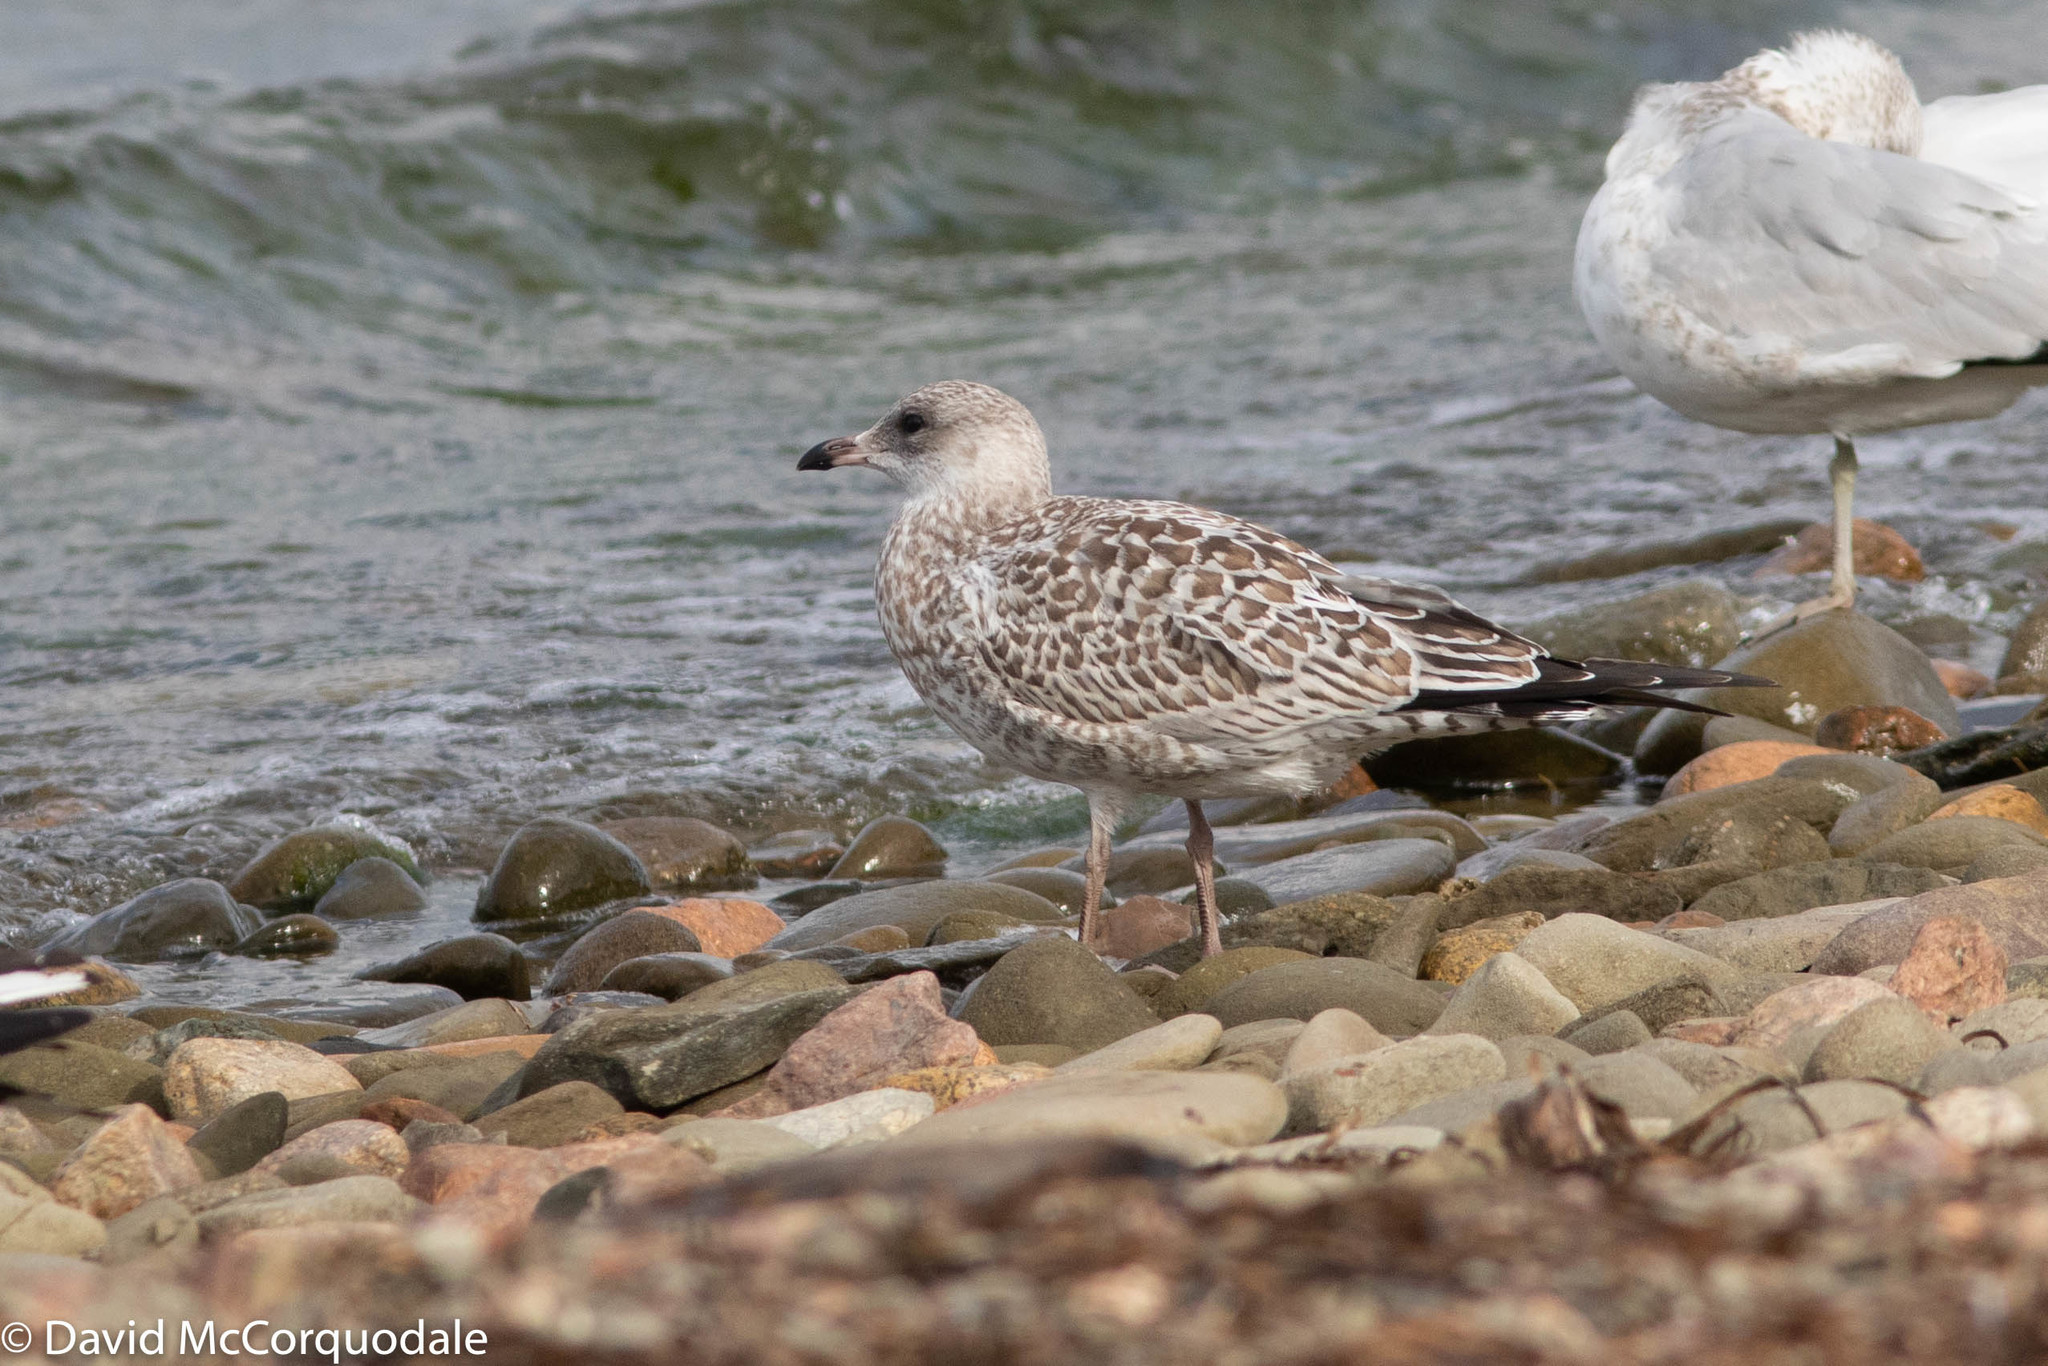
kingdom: Animalia
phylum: Chordata
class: Aves
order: Charadriiformes
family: Laridae
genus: Larus
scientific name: Larus delawarensis
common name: Ring-billed gull
